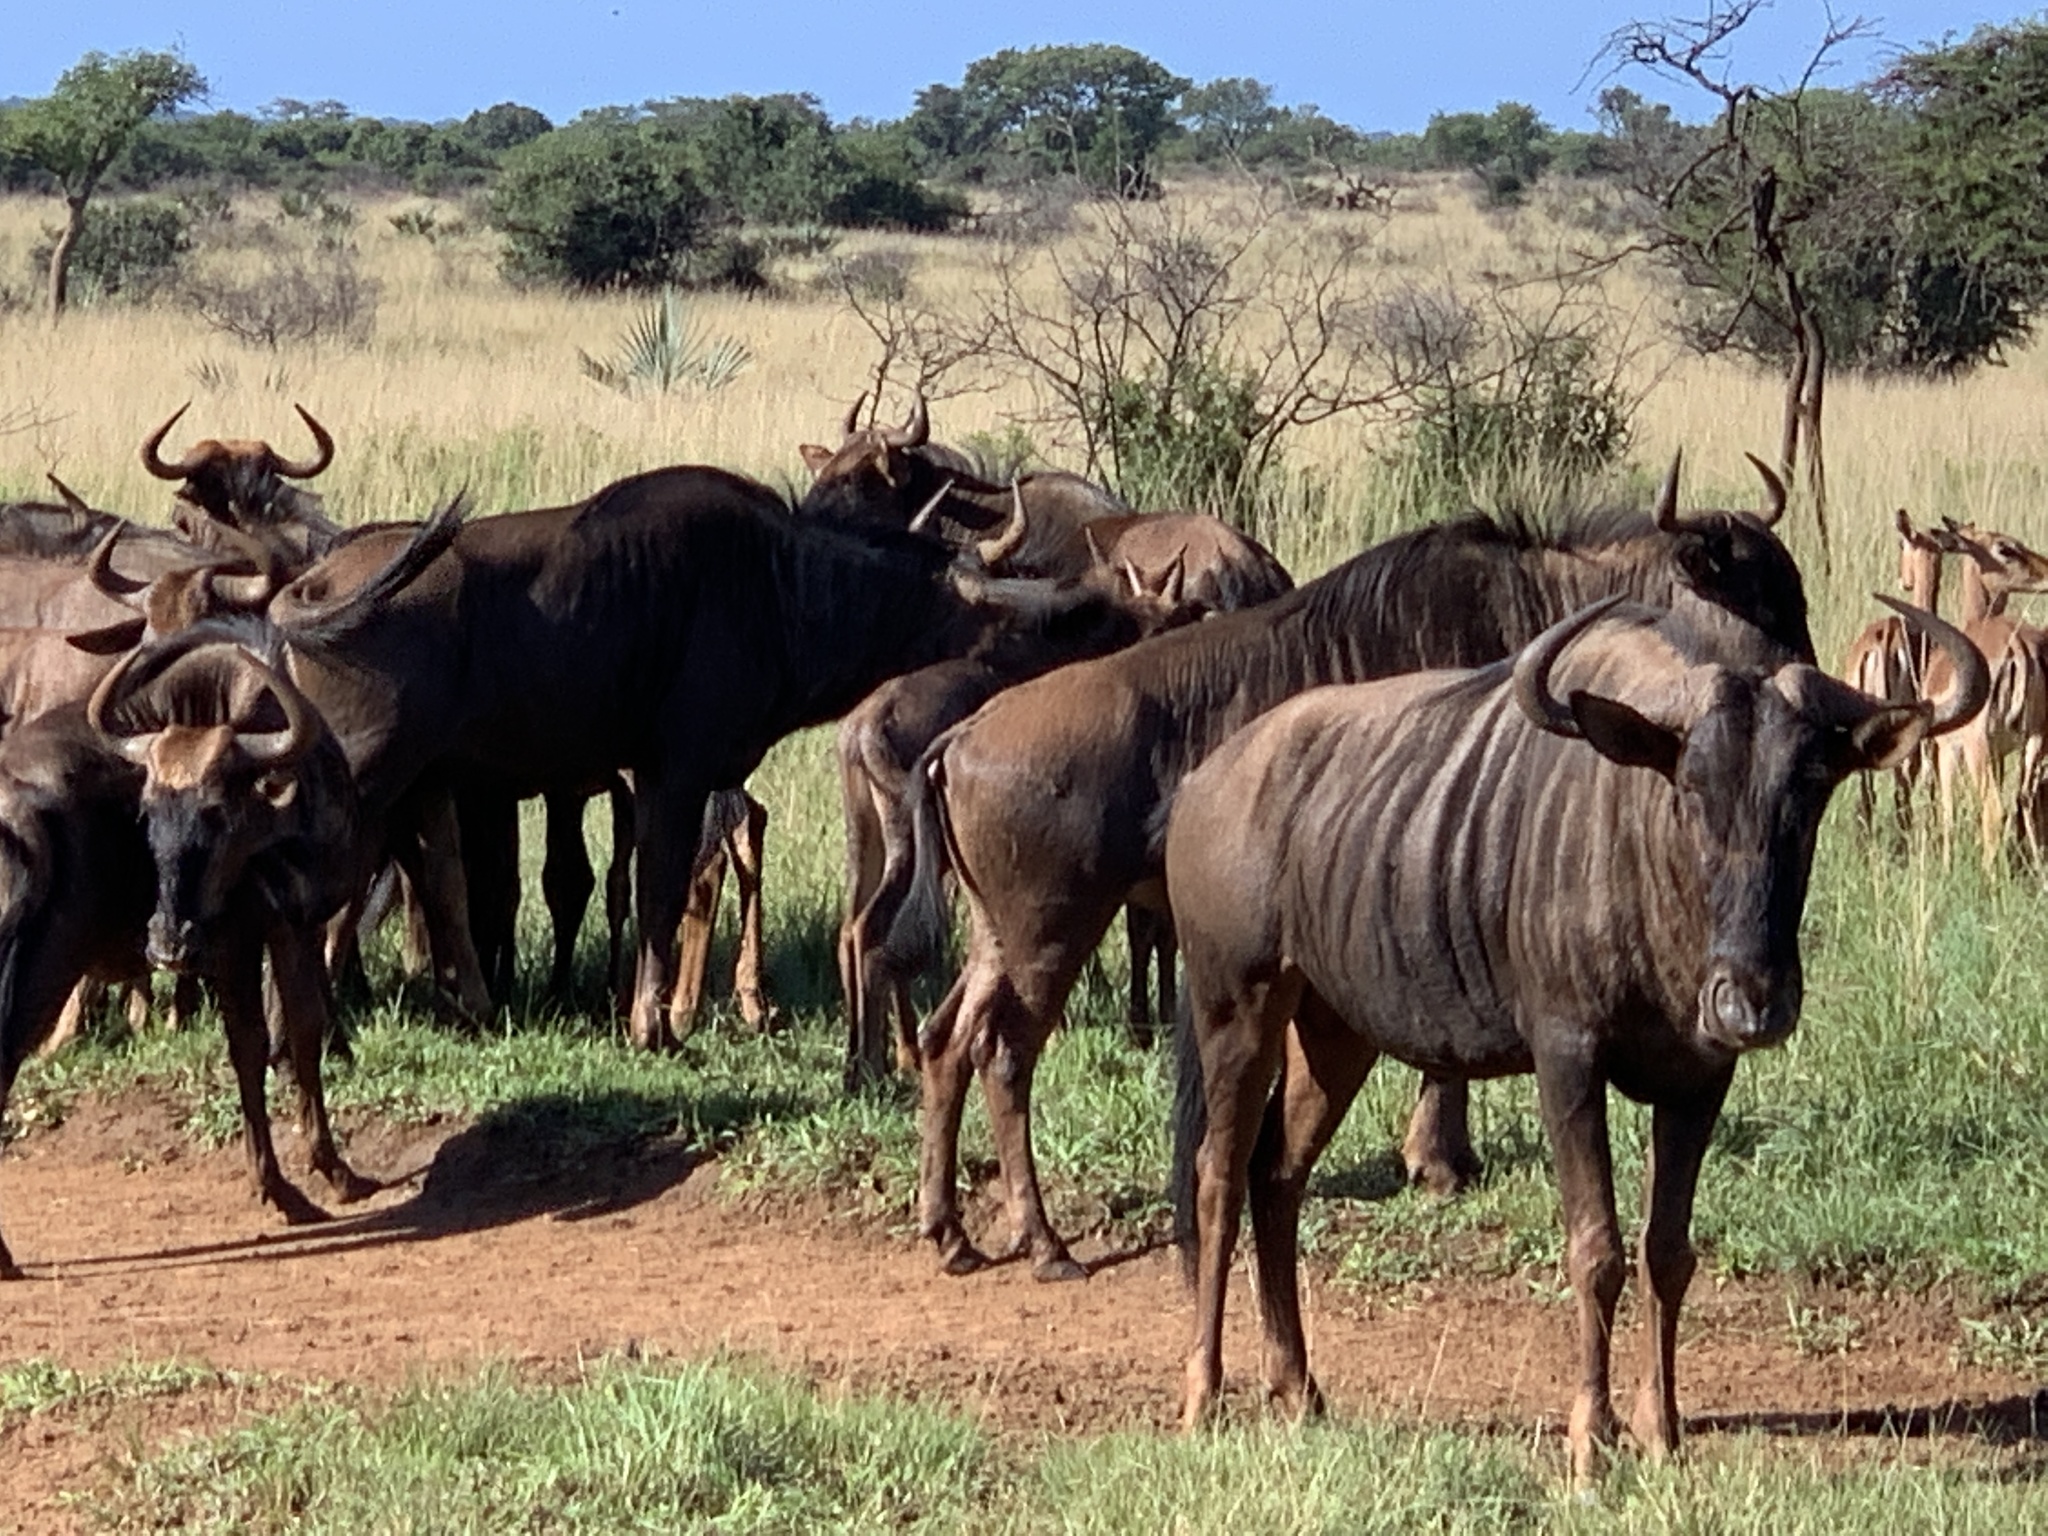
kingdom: Animalia
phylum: Chordata
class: Mammalia
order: Artiodactyla
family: Bovidae
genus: Connochaetes
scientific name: Connochaetes taurinus
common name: Blue wildebeest
